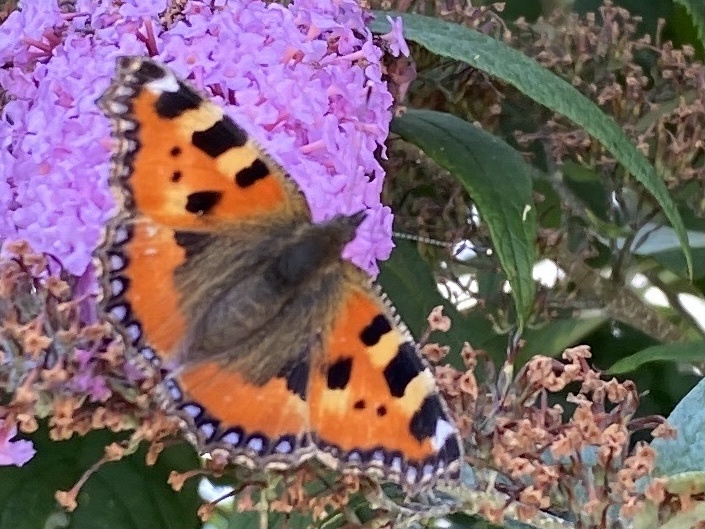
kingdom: Animalia
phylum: Arthropoda
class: Insecta
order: Lepidoptera
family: Nymphalidae
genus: Aglais
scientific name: Aglais urticae
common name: Small tortoiseshell
